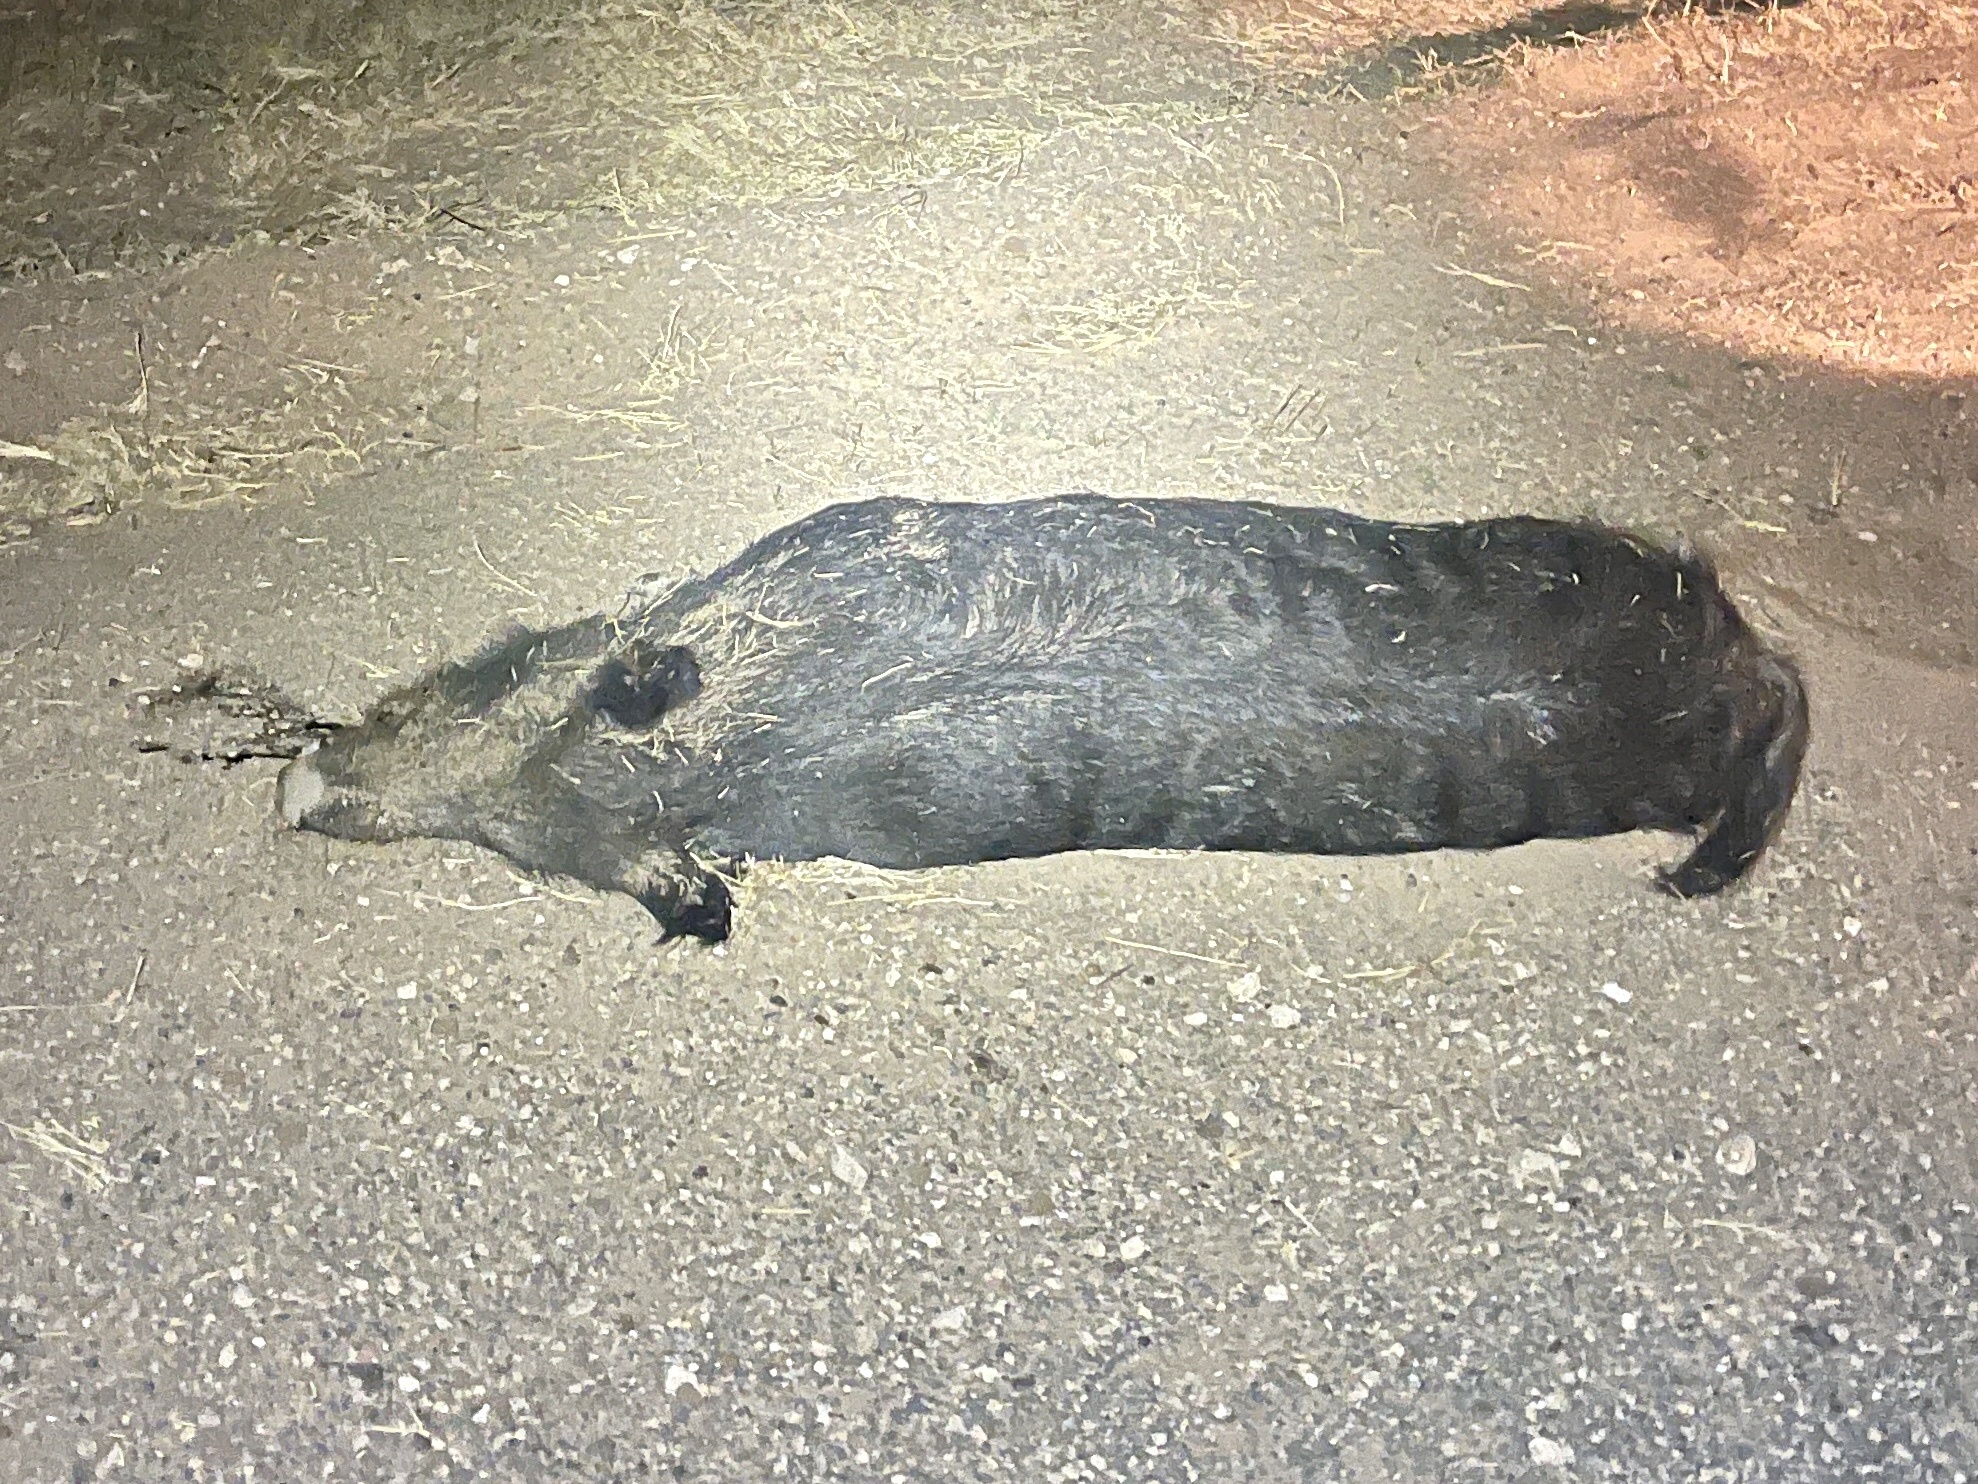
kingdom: Animalia
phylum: Chordata
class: Mammalia
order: Artiodactyla
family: Suidae
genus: Sus
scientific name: Sus scrofa
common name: Wild boar
